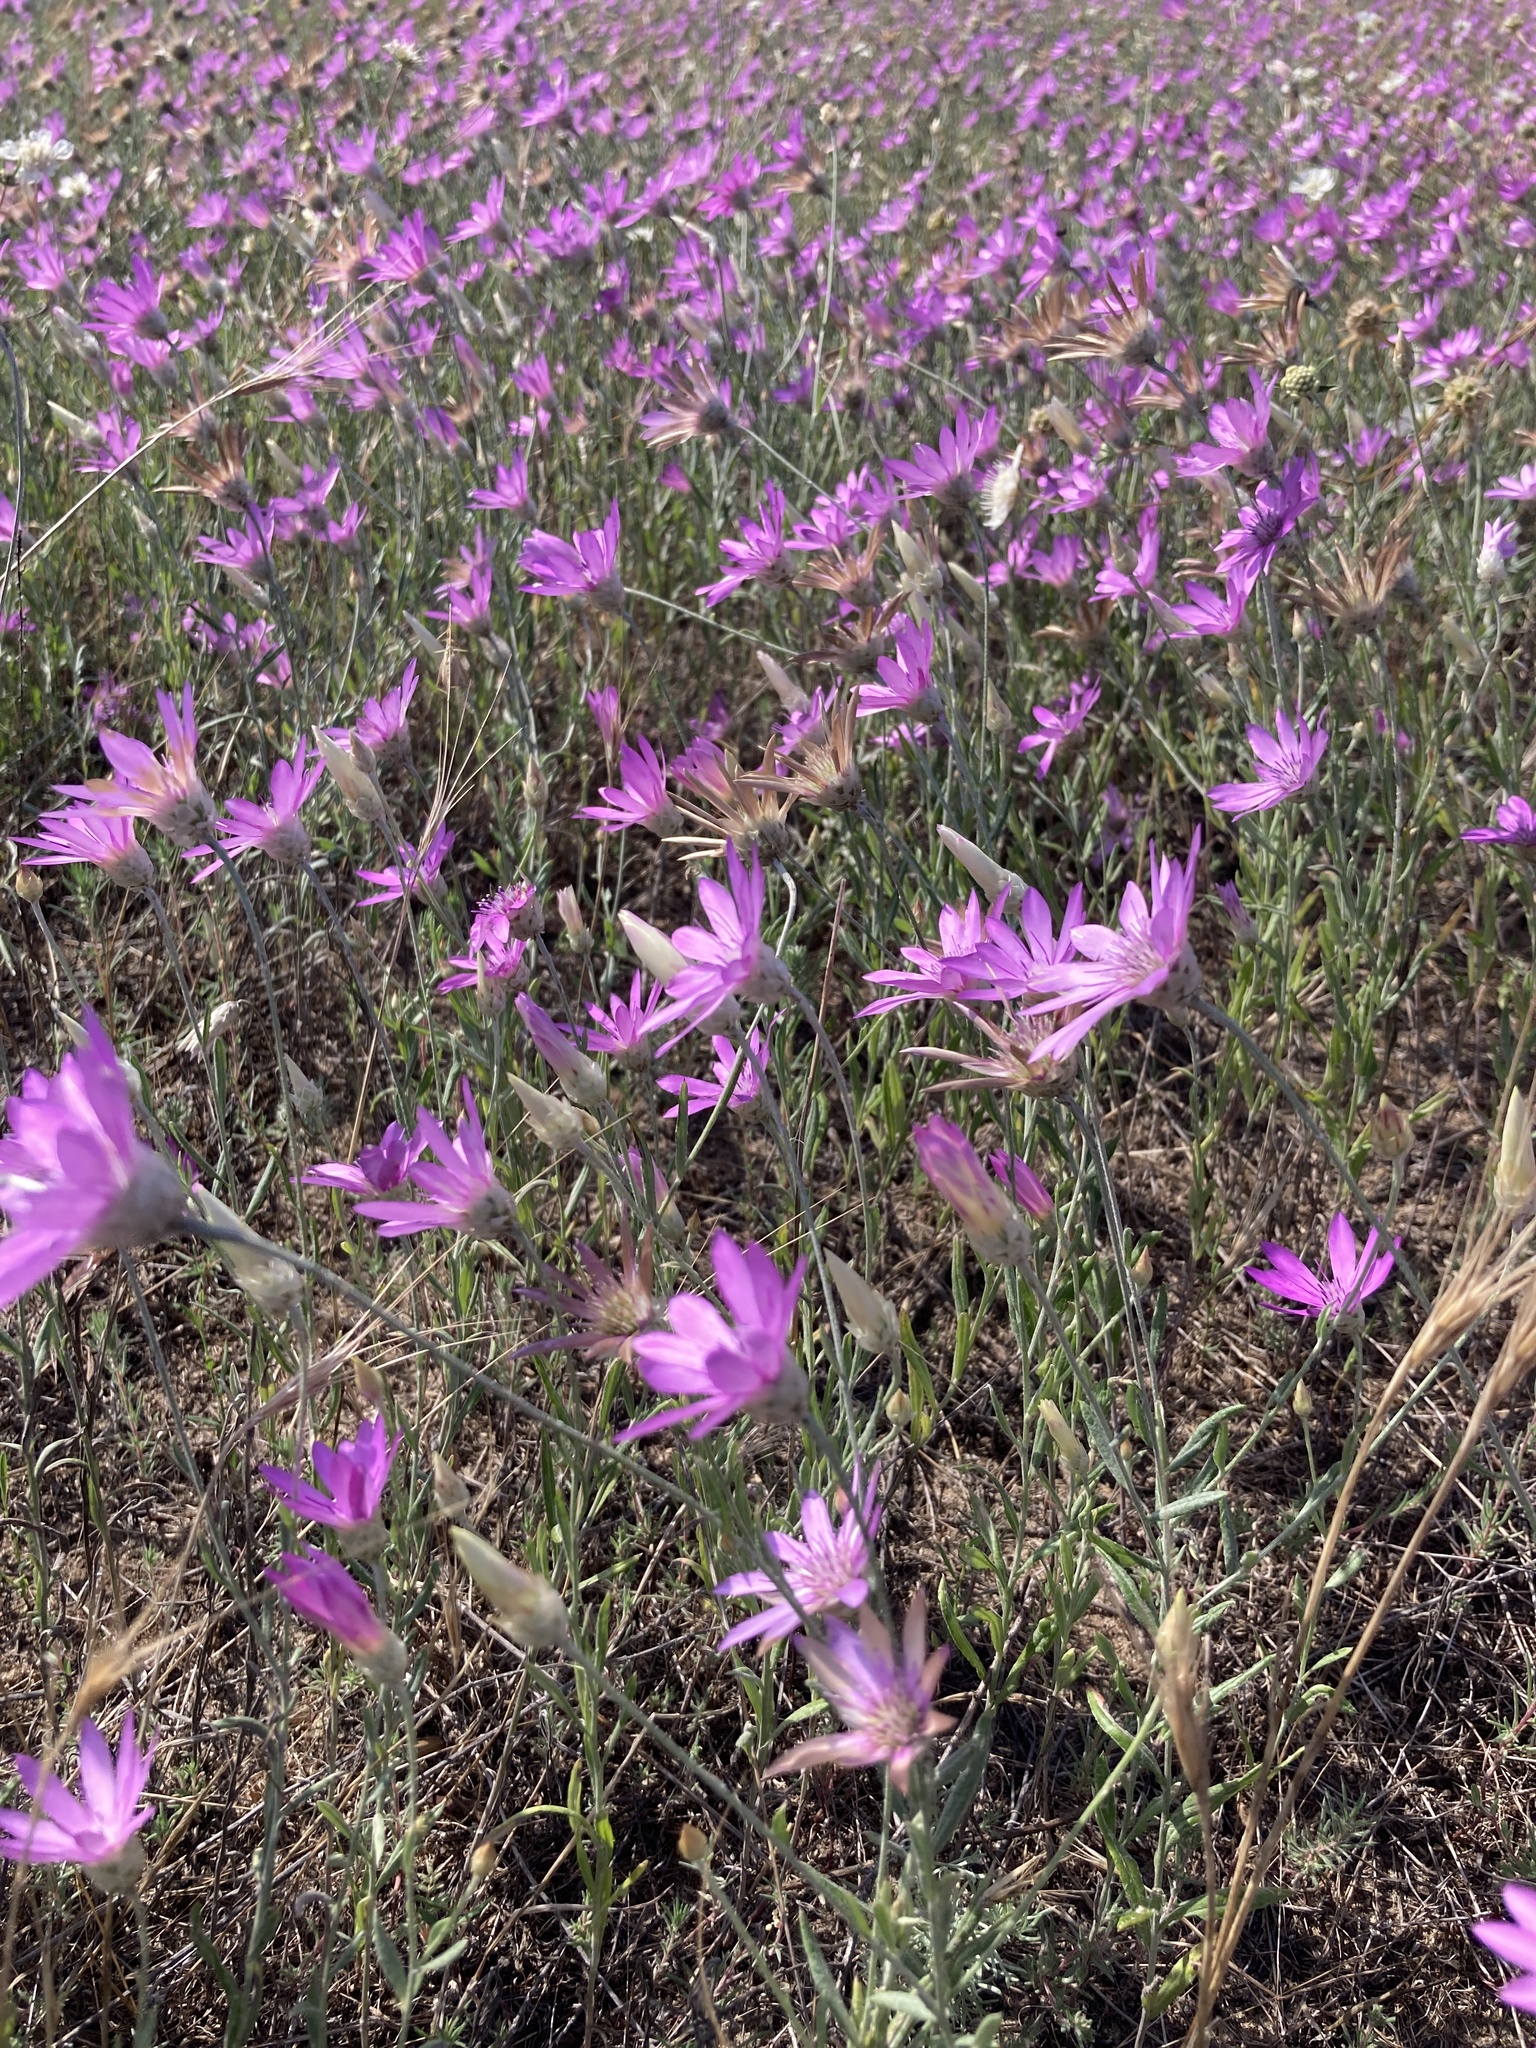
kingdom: Plantae
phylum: Tracheophyta
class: Magnoliopsida
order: Asterales
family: Asteraceae
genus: Xeranthemum
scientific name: Xeranthemum annuum
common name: Immortelle
